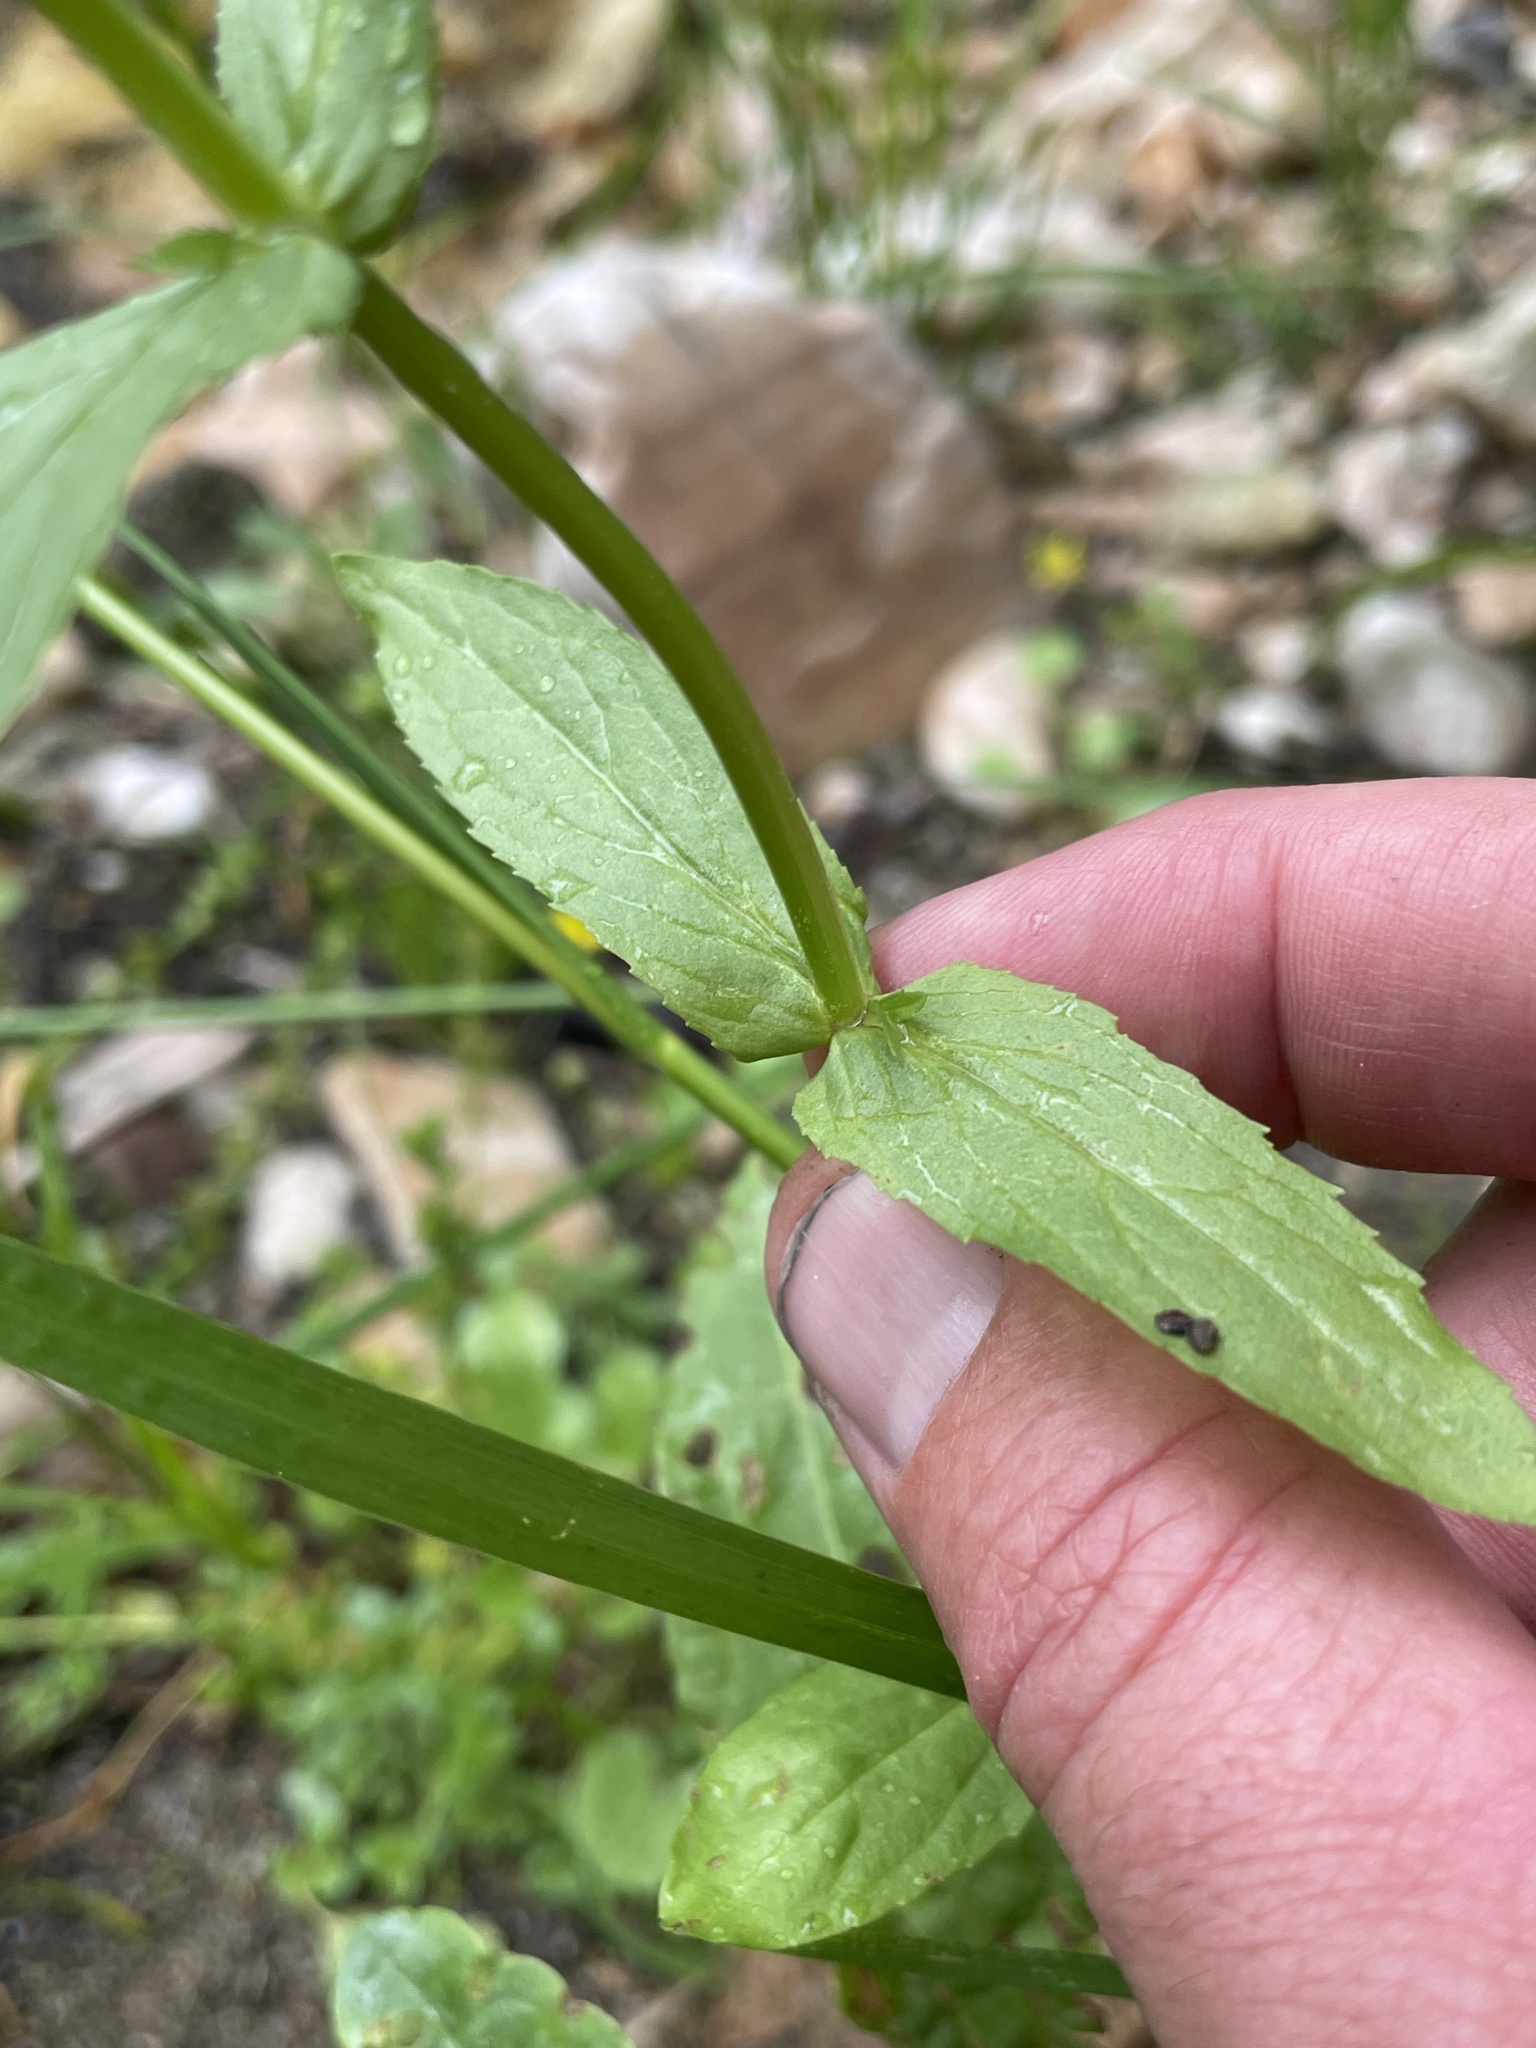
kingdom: Plantae
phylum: Tracheophyta
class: Magnoliopsida
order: Lamiales
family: Plantaginaceae
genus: Veronica
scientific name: Veronica anagallis-aquatica
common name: Water speedwell
